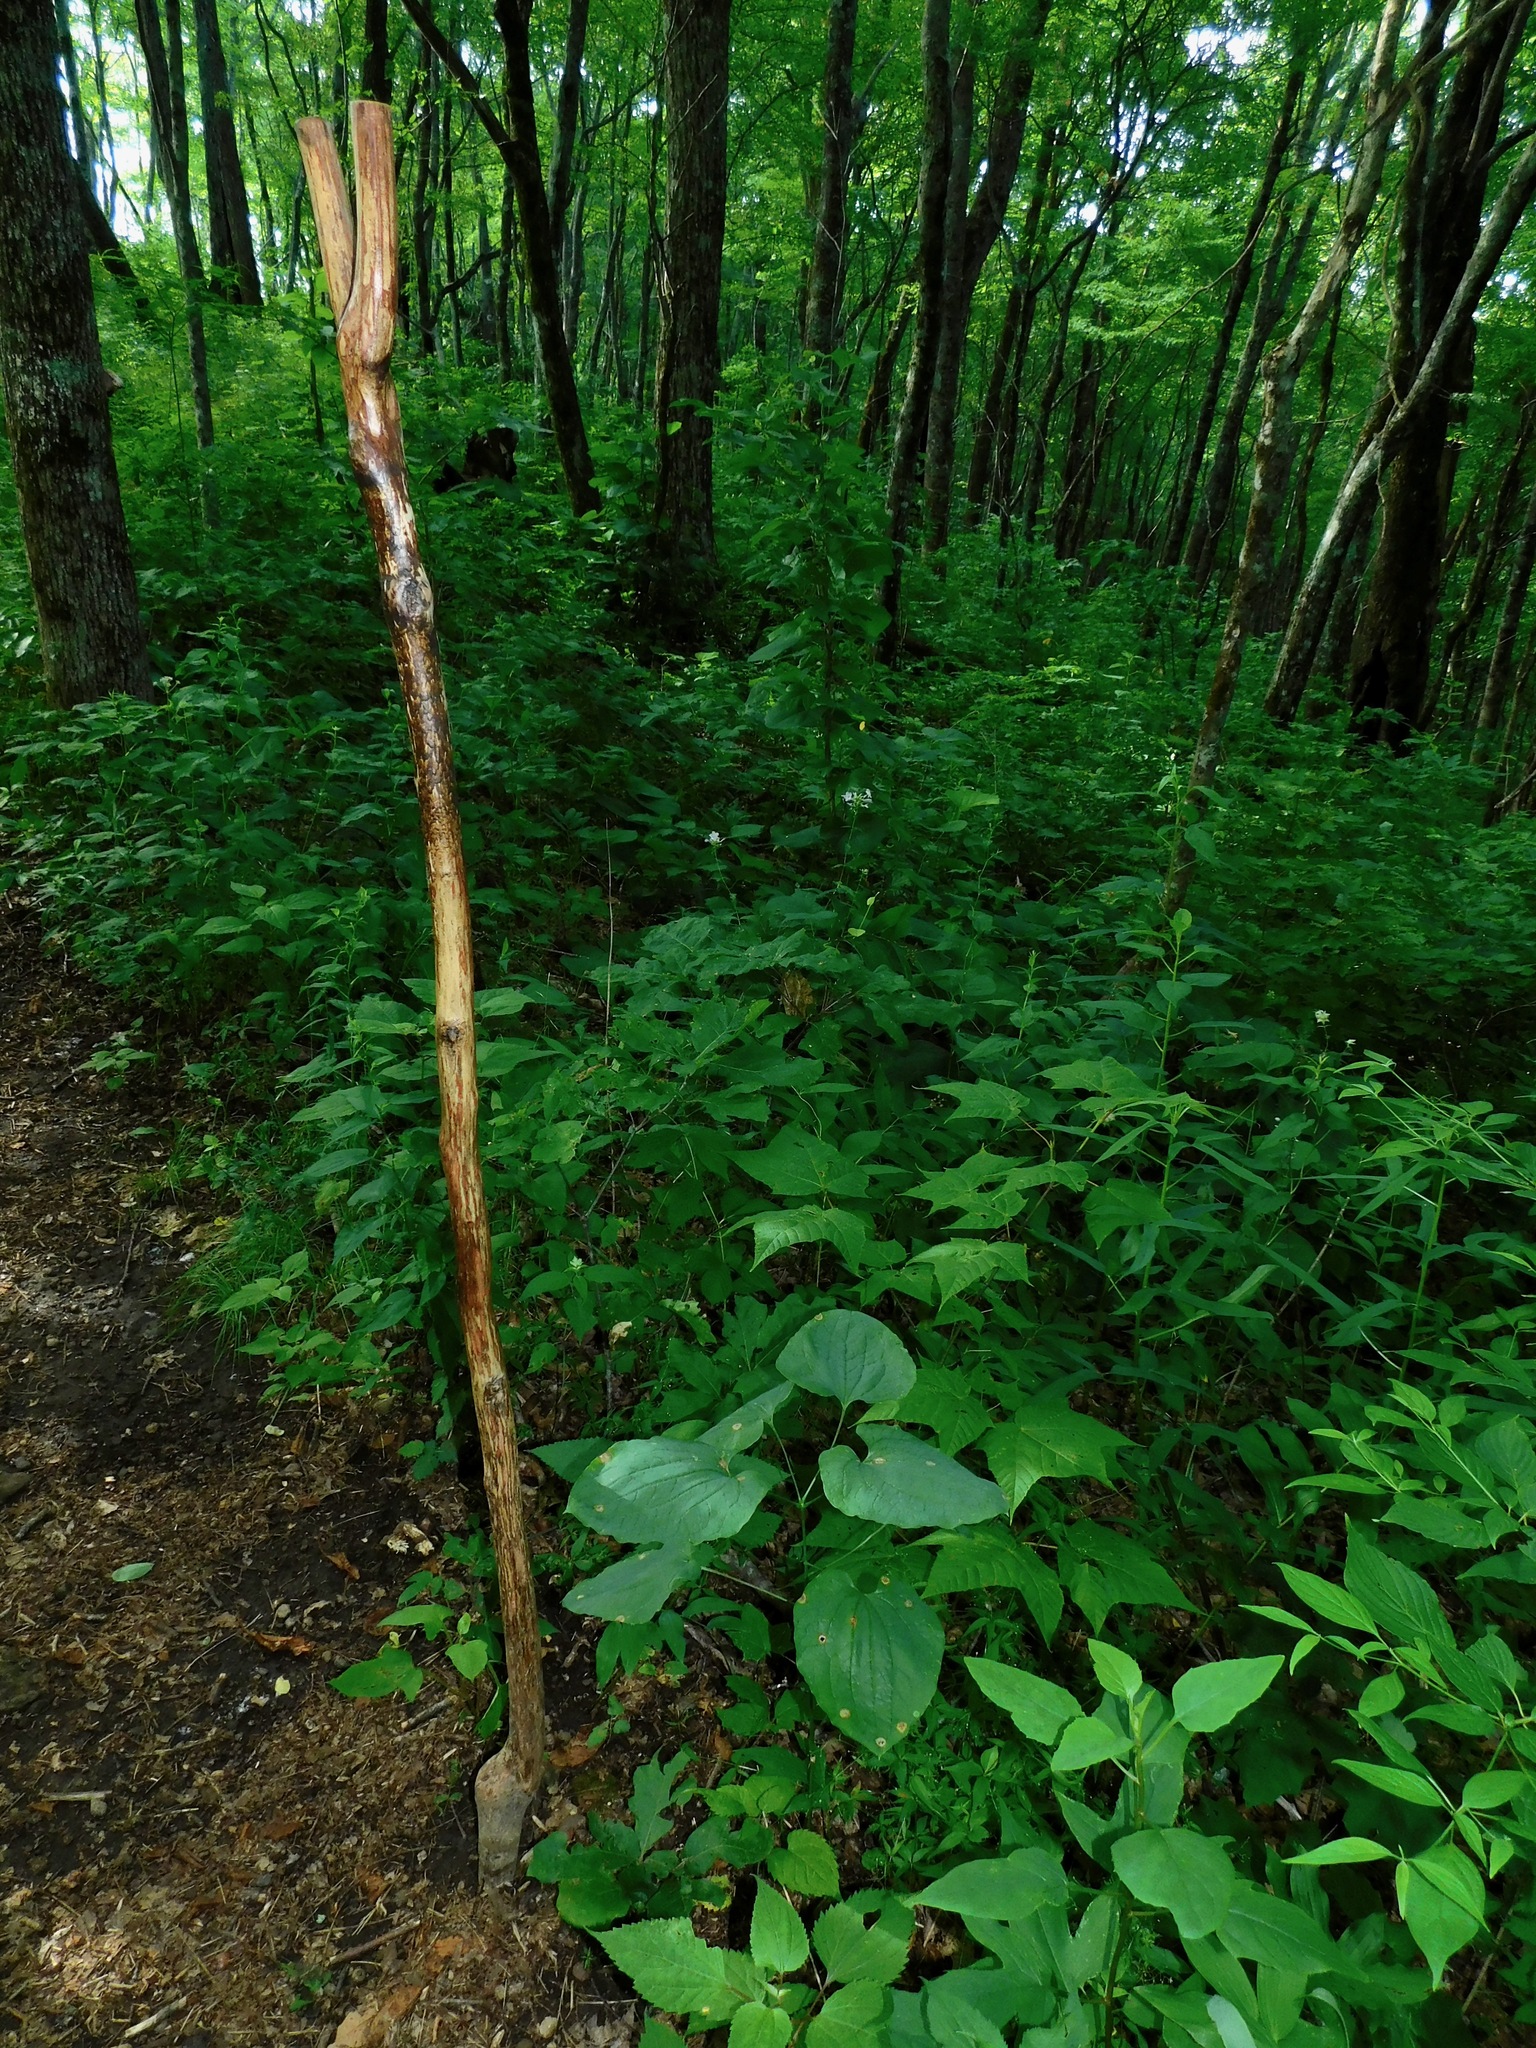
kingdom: Plantae
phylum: Tracheophyta
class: Liliopsida
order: Liliales
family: Smilacaceae
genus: Smilax
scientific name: Smilax biltmoreana
